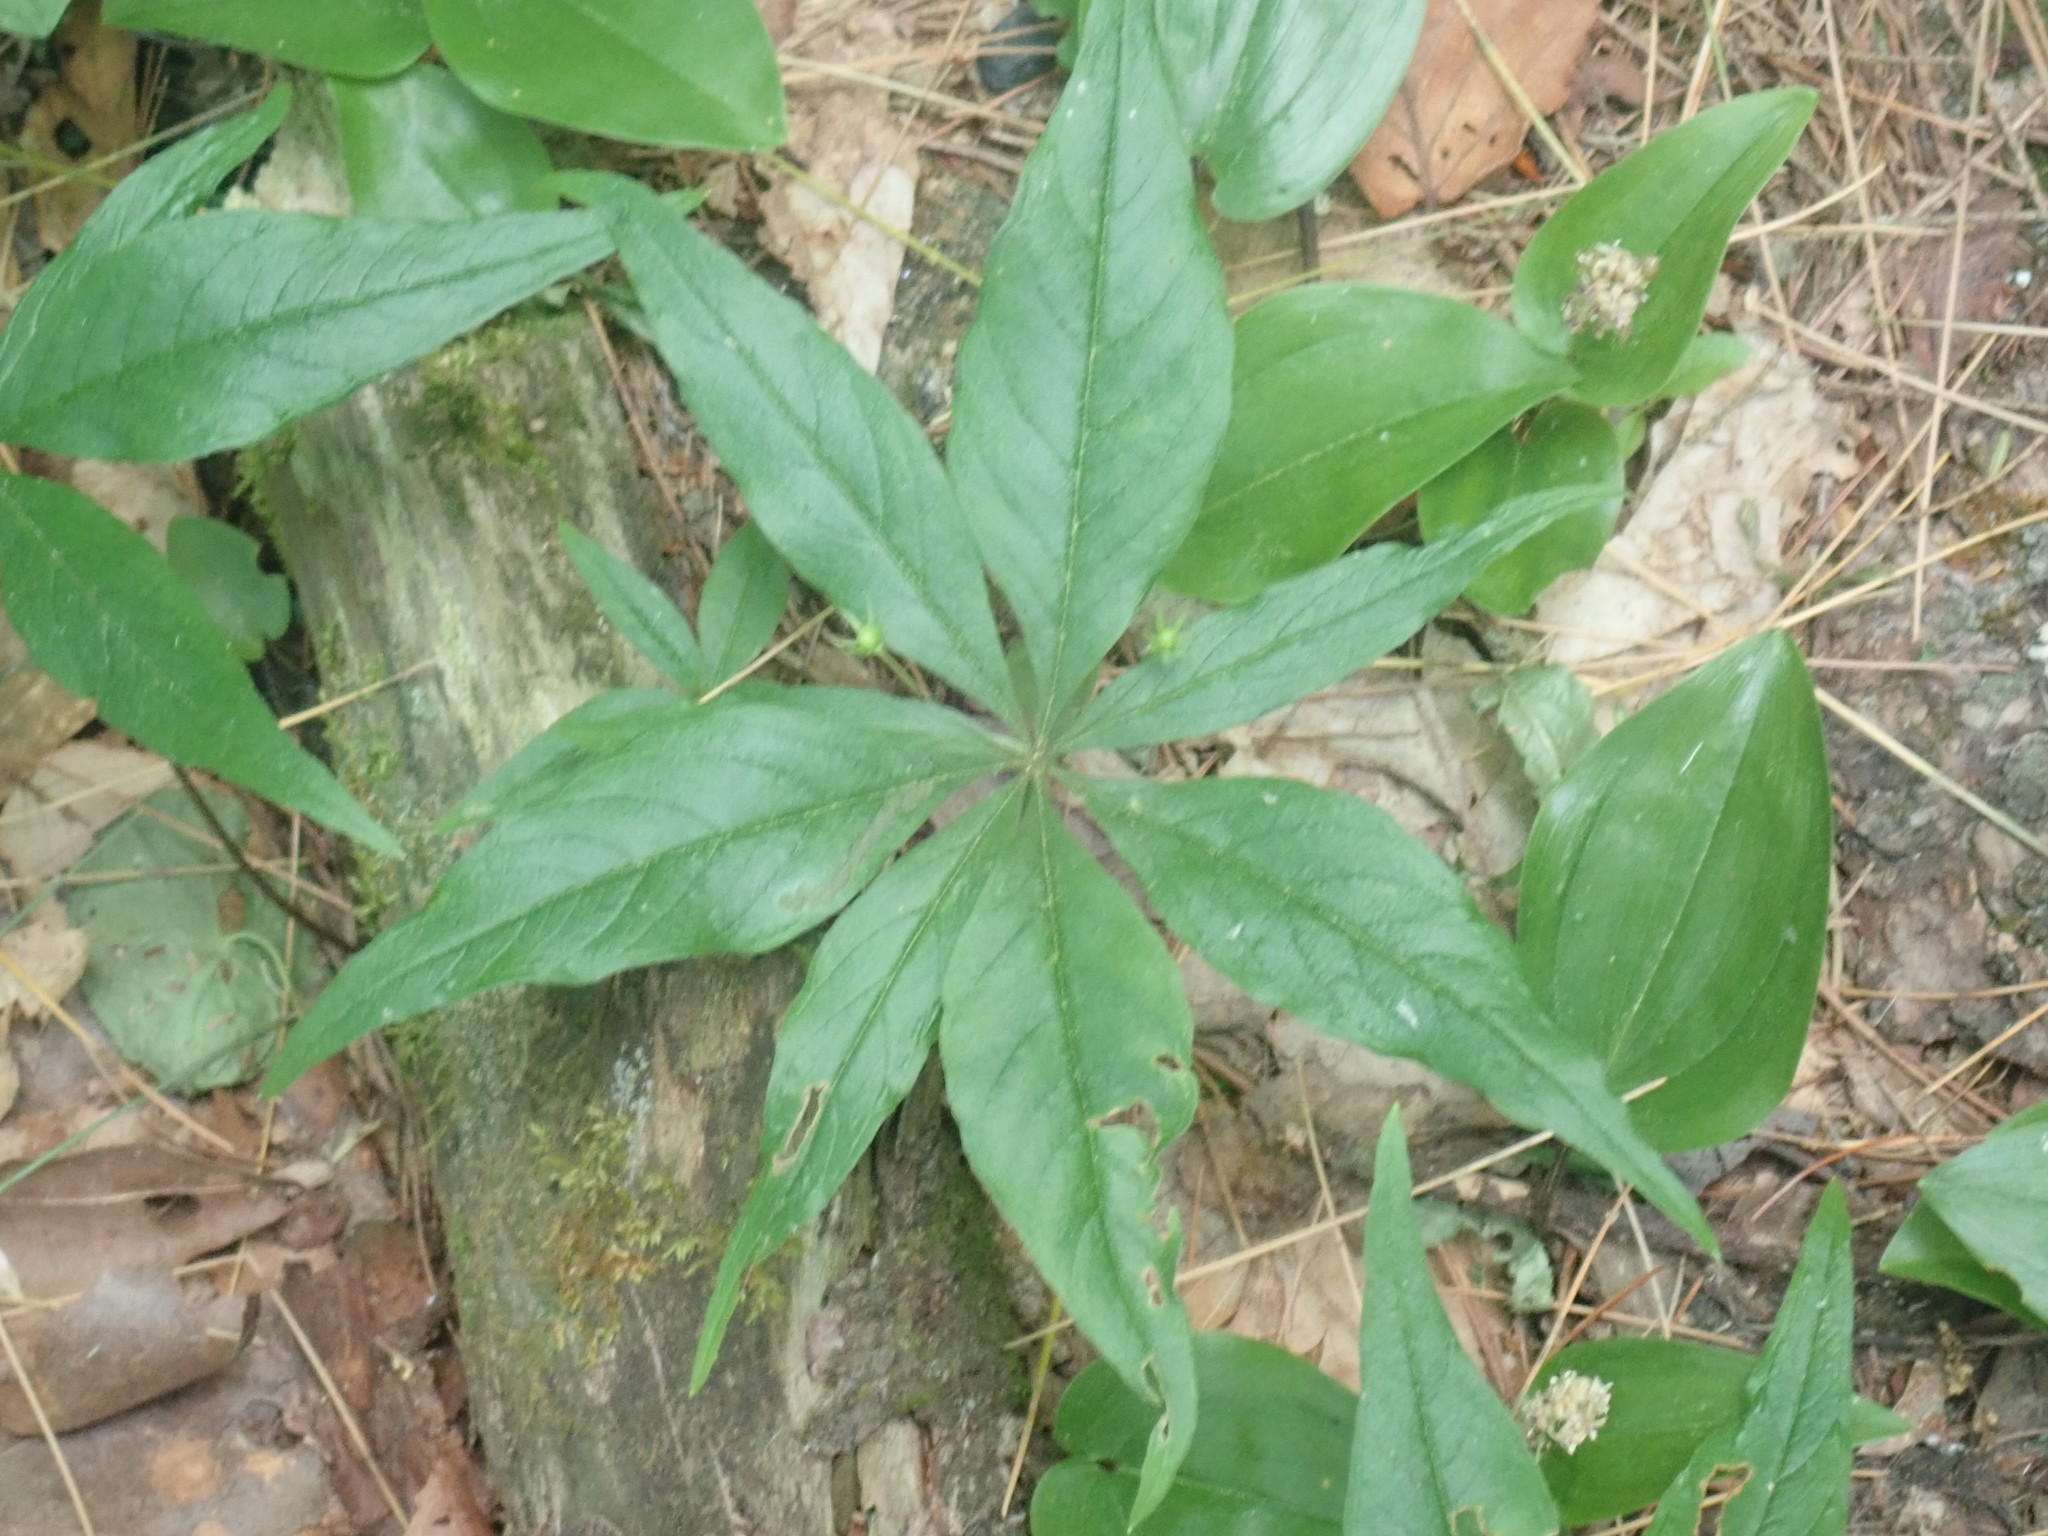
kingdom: Plantae
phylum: Tracheophyta
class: Magnoliopsida
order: Ericales
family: Primulaceae
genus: Lysimachia
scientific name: Lysimachia borealis
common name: American starflower
